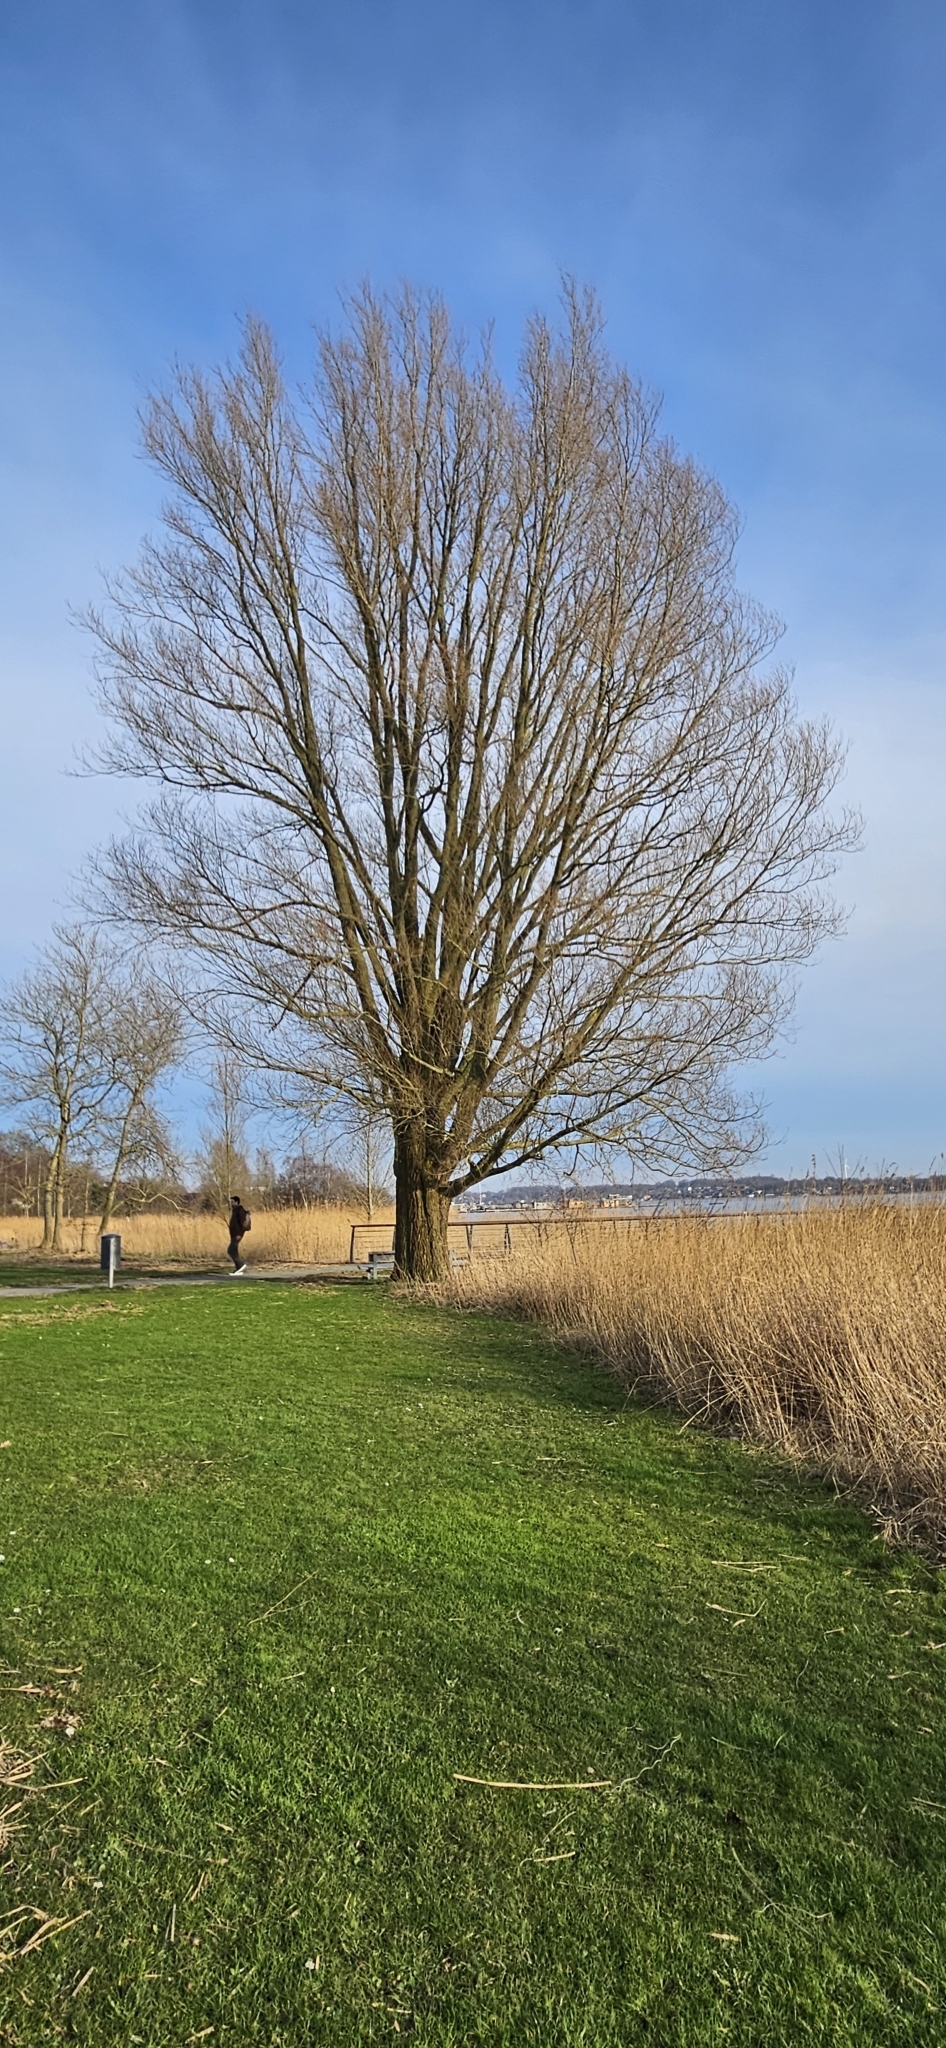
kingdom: Plantae
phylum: Tracheophyta
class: Magnoliopsida
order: Malpighiales
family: Salicaceae
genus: Salix
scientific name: Salix alba
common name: White willow
